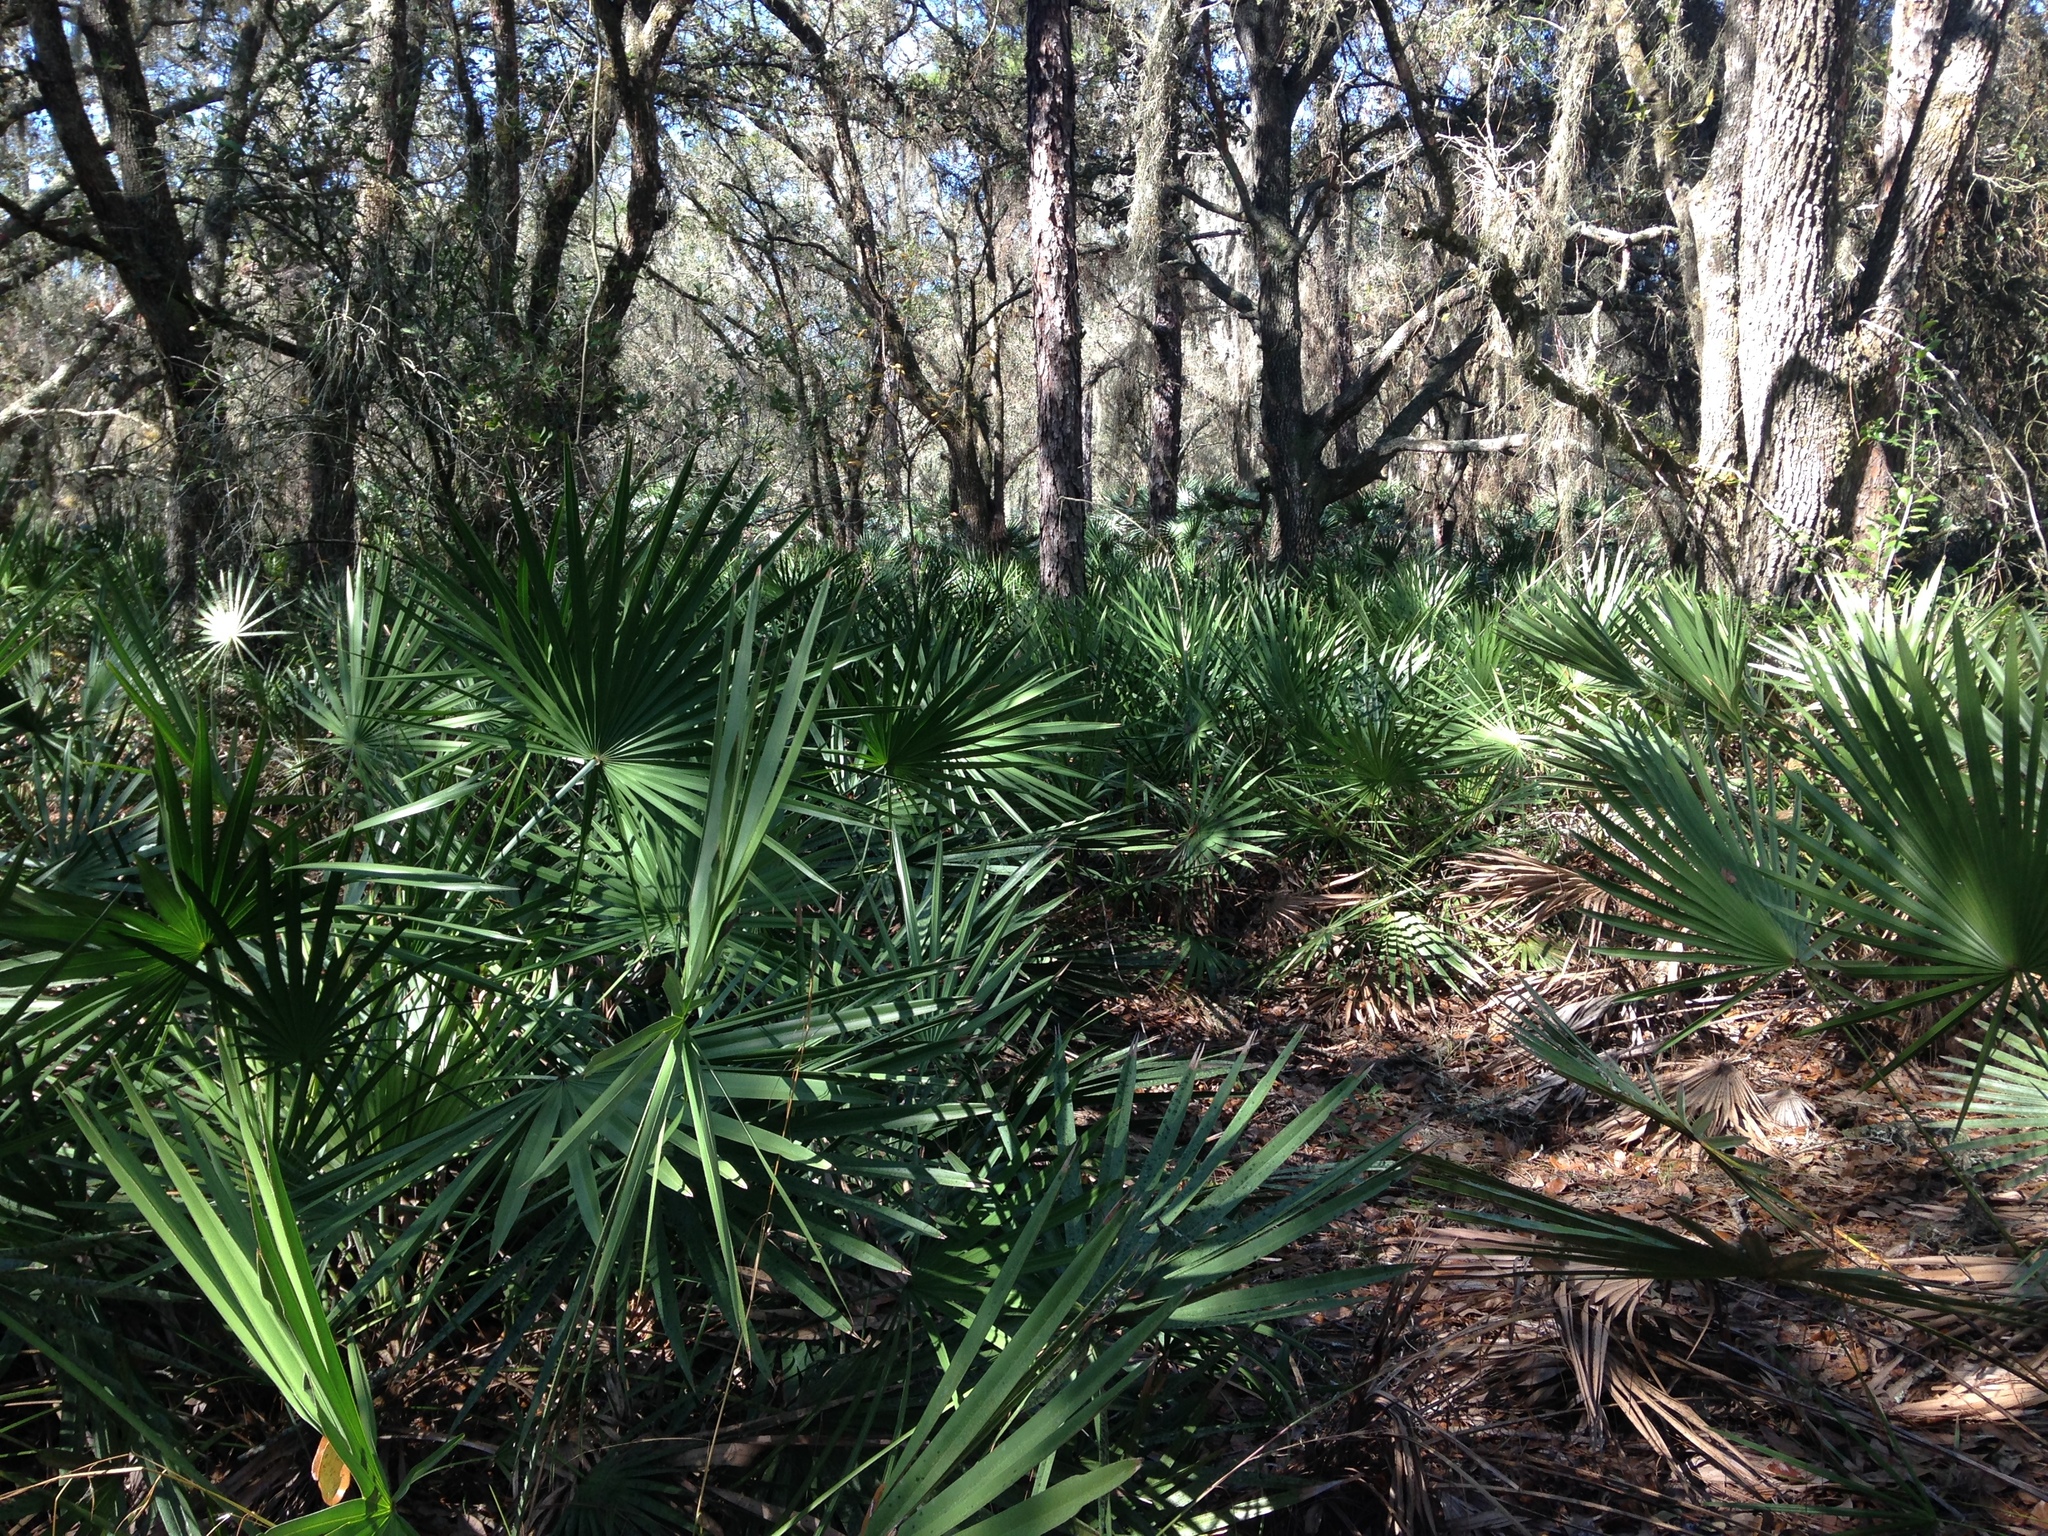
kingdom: Plantae
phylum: Tracheophyta
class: Liliopsida
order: Arecales
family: Arecaceae
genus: Serenoa
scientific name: Serenoa repens
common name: Saw-palmetto
